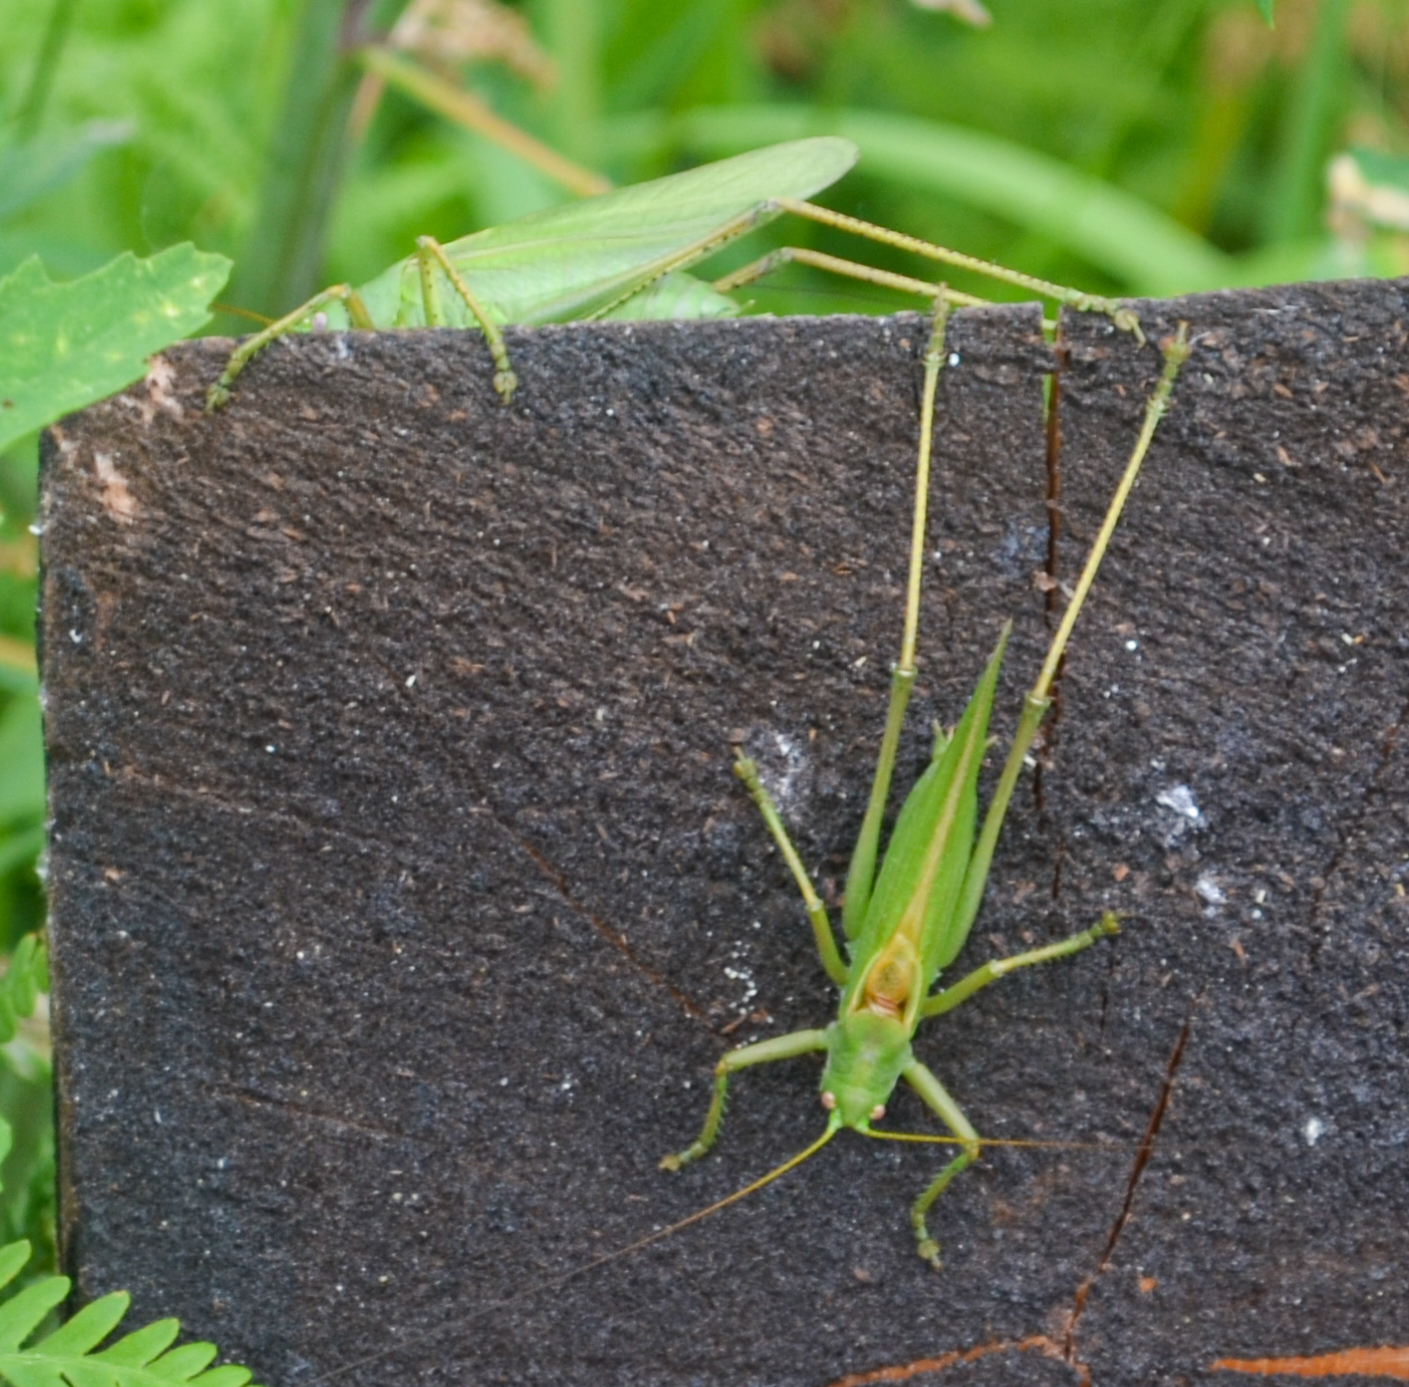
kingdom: Animalia
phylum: Arthropoda
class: Insecta
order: Orthoptera
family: Tettigoniidae
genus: Tettigonia
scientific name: Tettigonia caudata
